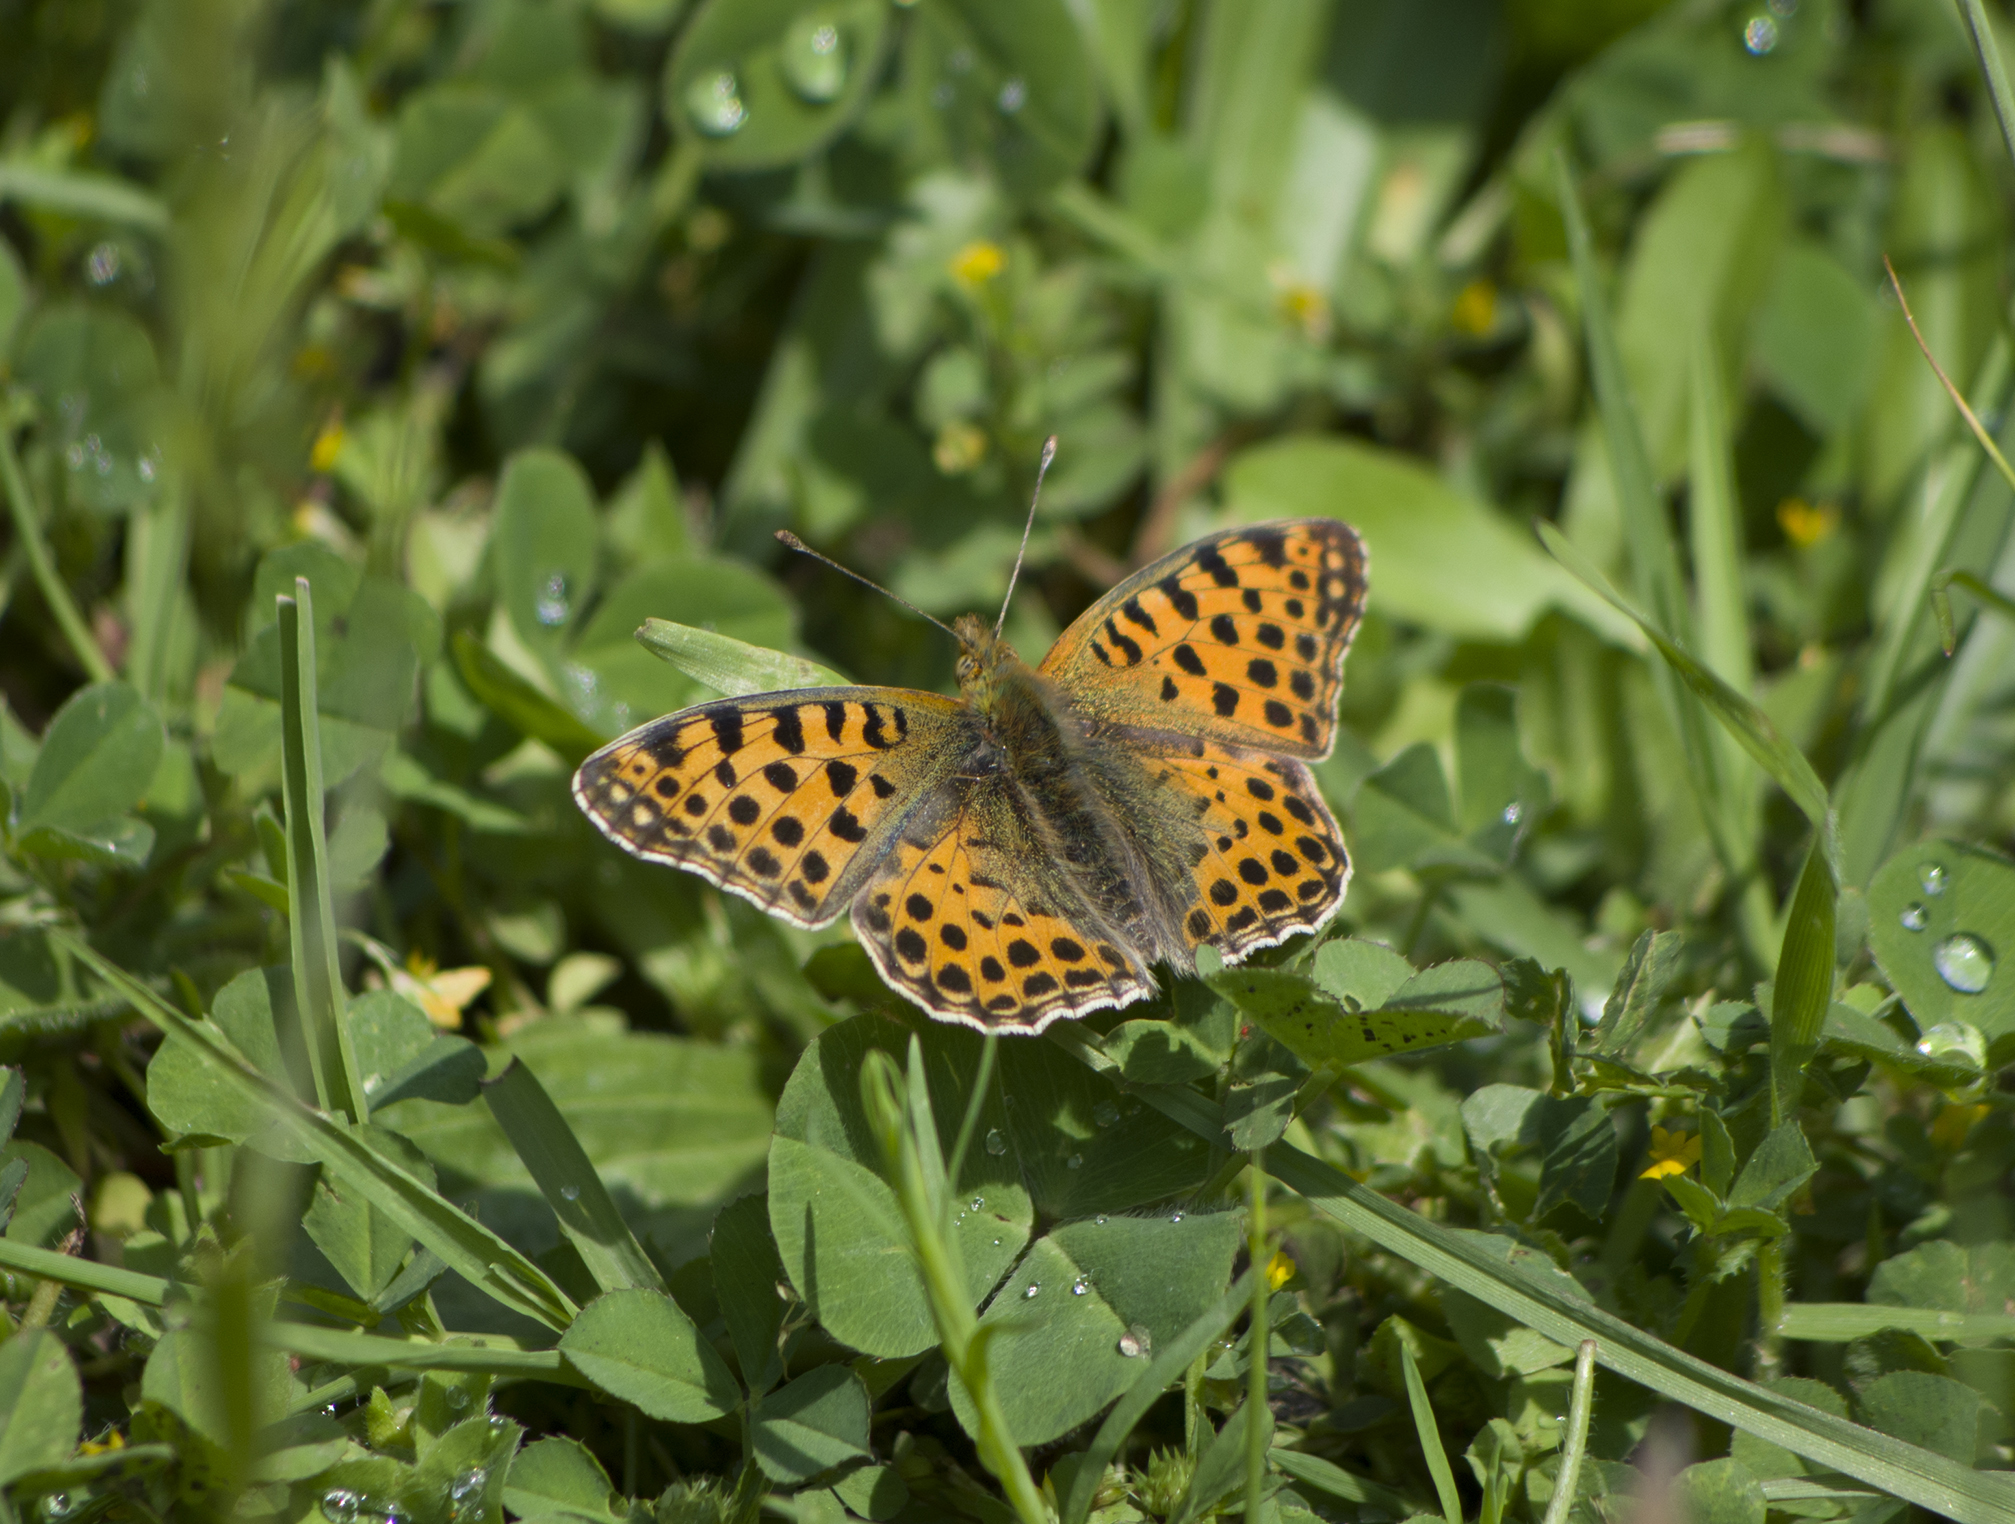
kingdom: Animalia
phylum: Arthropoda
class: Insecta
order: Lepidoptera
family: Nymphalidae
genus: Issoria
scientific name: Issoria lathonia
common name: Queen of spain fritillary
